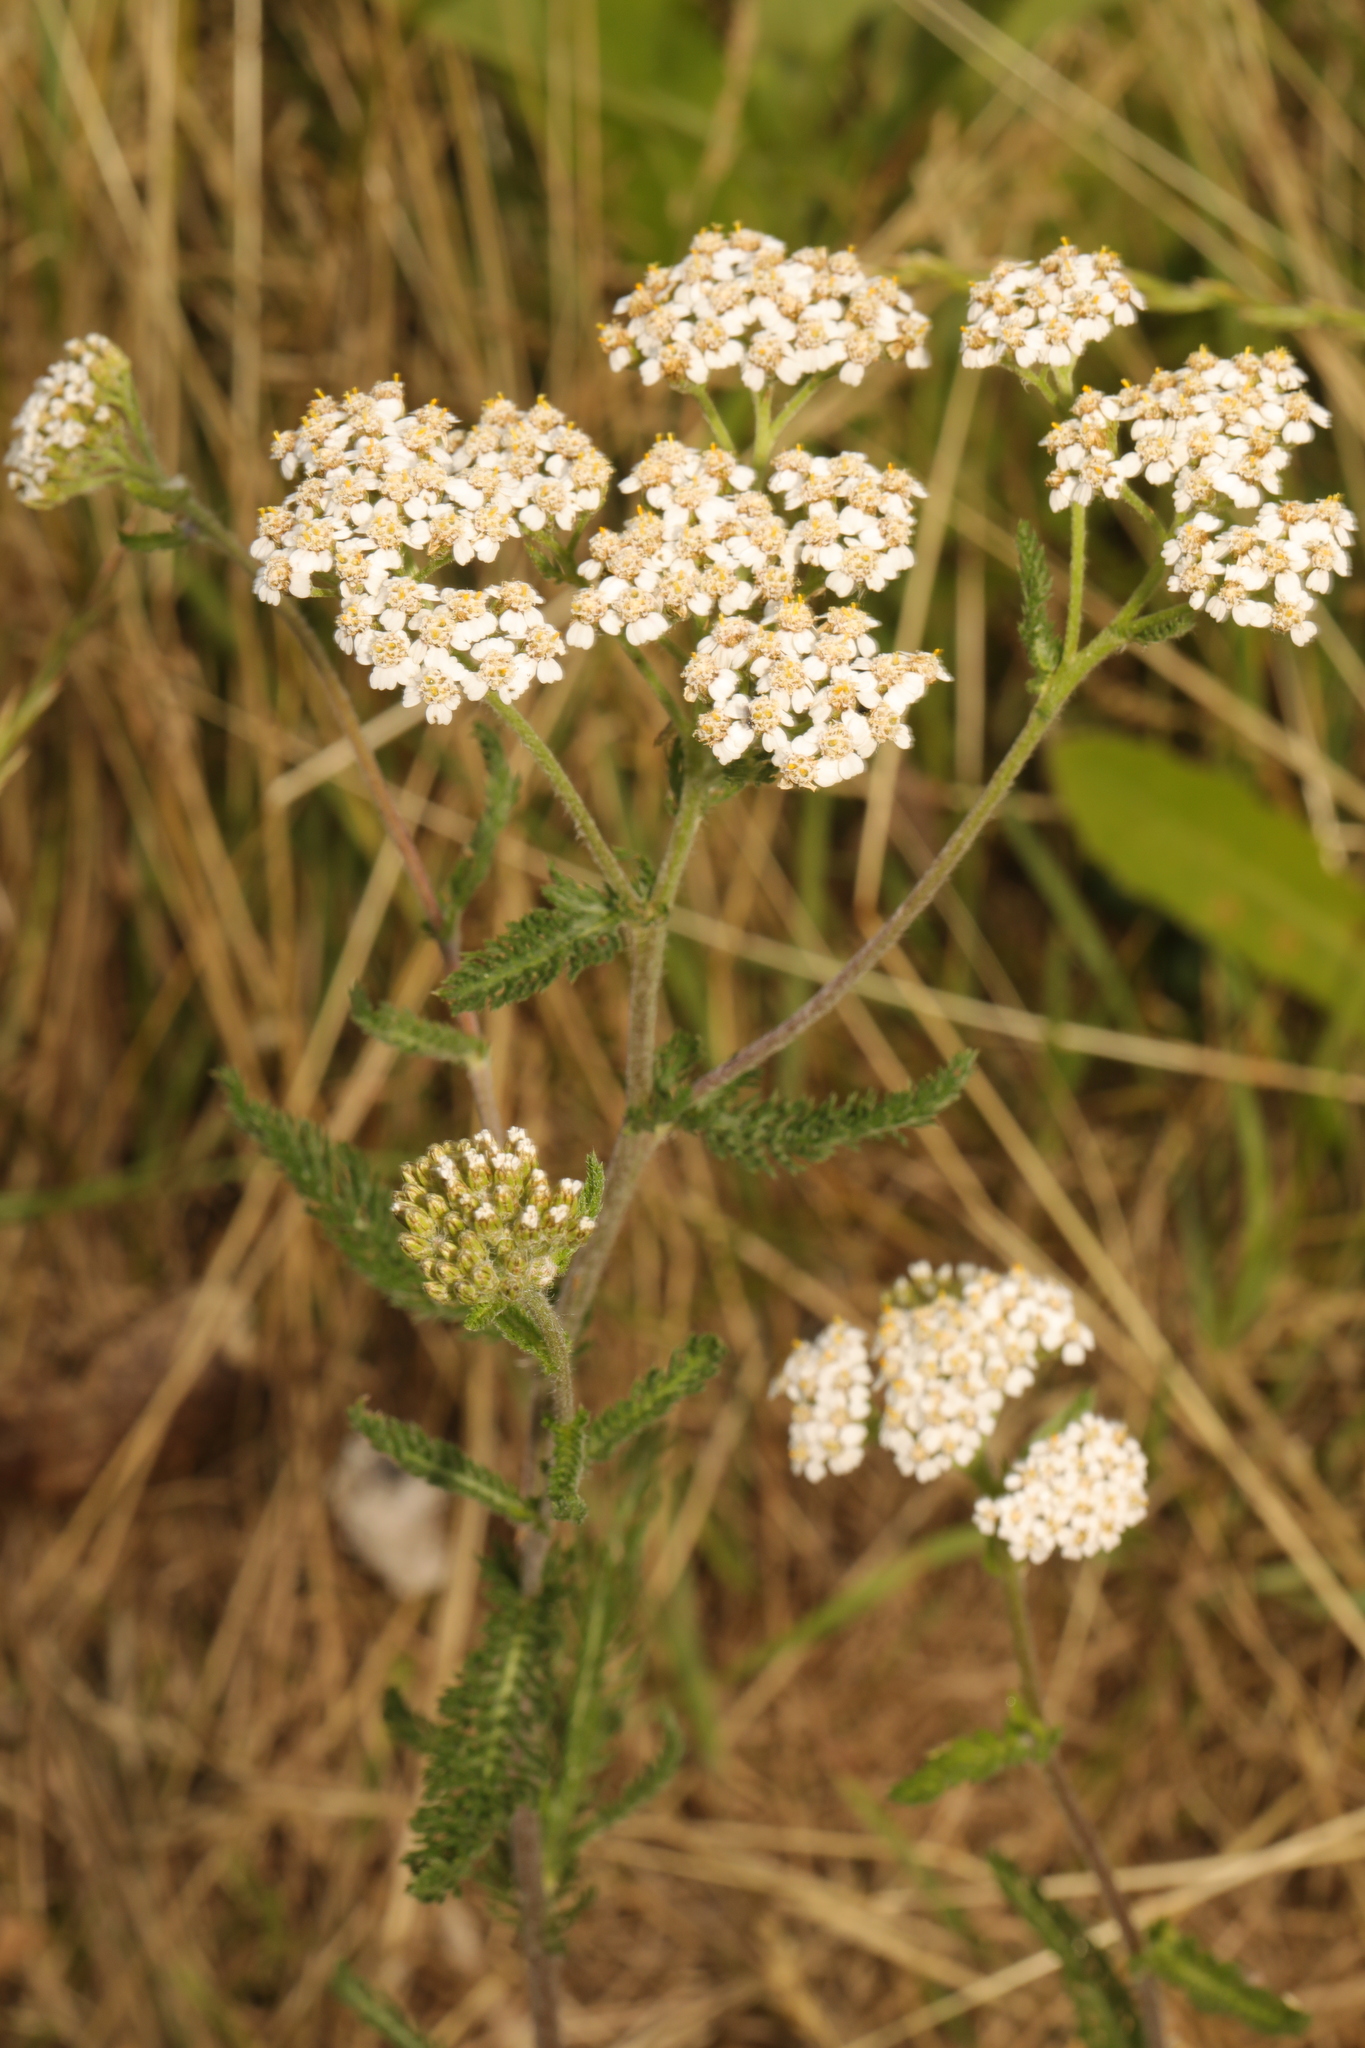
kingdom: Plantae
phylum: Tracheophyta
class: Magnoliopsida
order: Asterales
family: Asteraceae
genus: Achillea
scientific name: Achillea millefolium
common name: Yarrow
